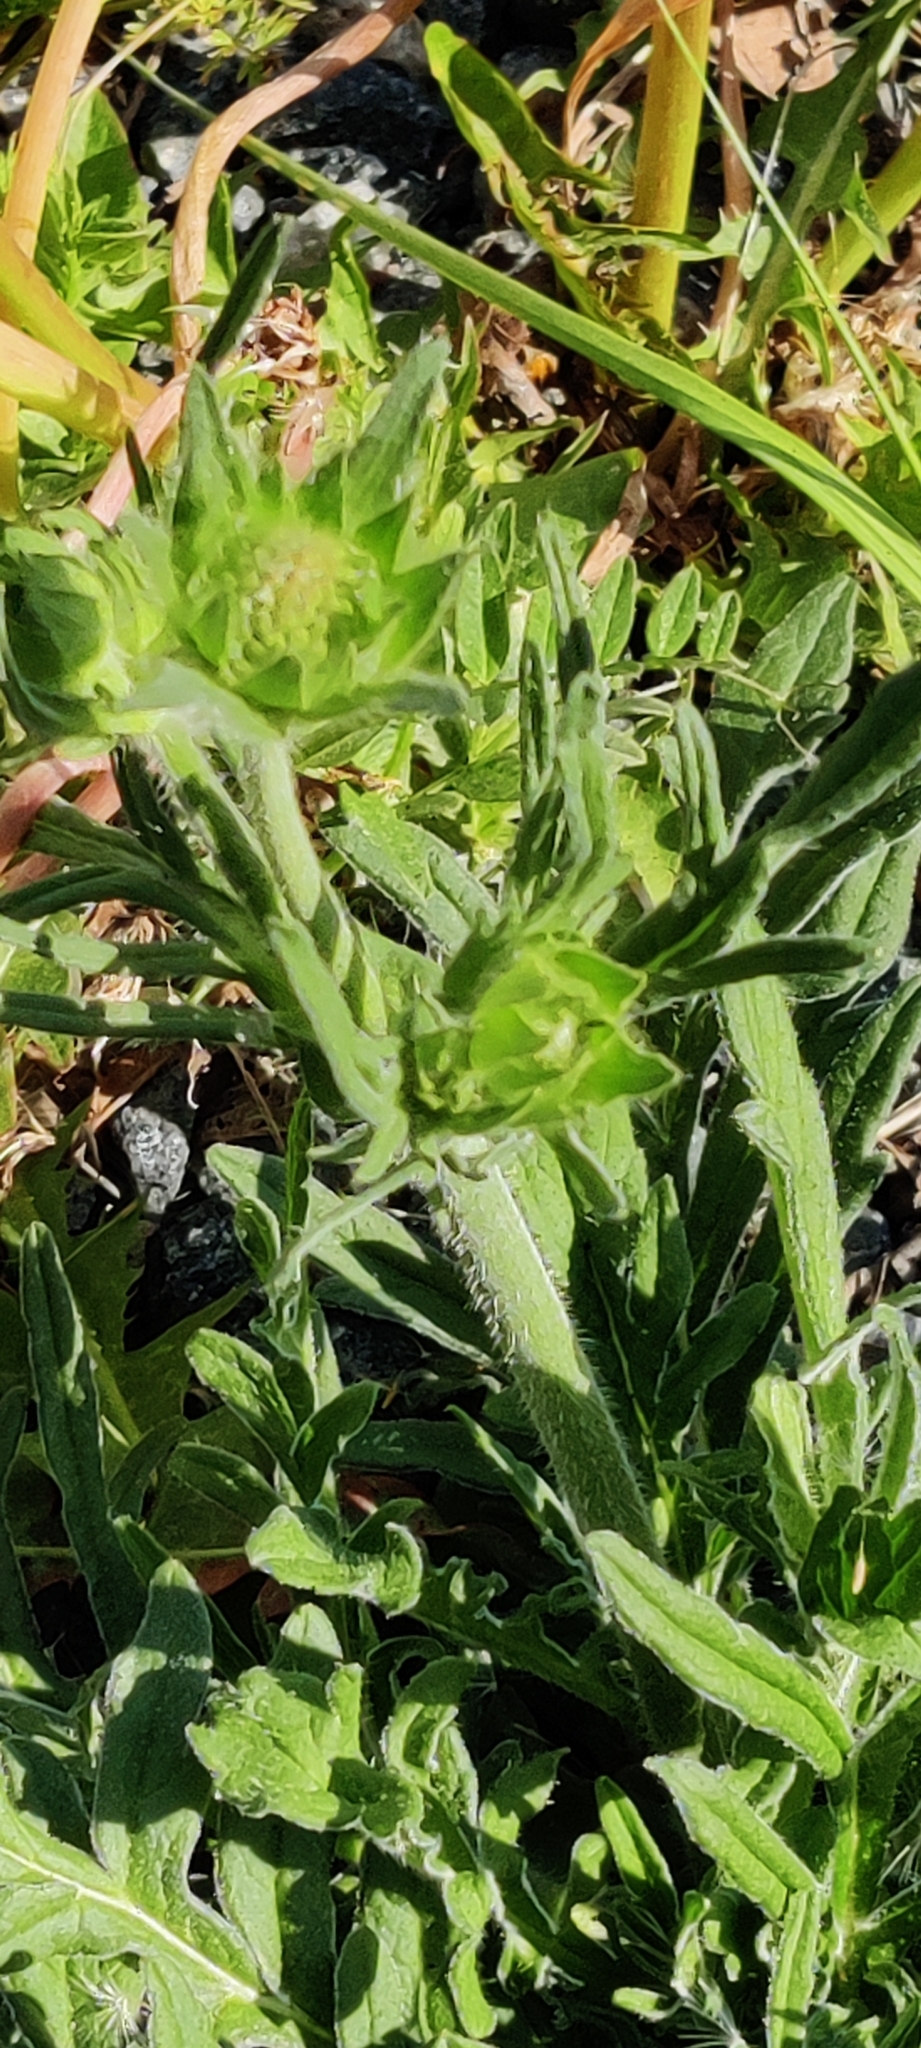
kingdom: Plantae
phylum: Tracheophyta
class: Magnoliopsida
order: Dipsacales
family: Caprifoliaceae
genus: Knautia
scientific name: Knautia arvensis
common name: Field scabiosa
